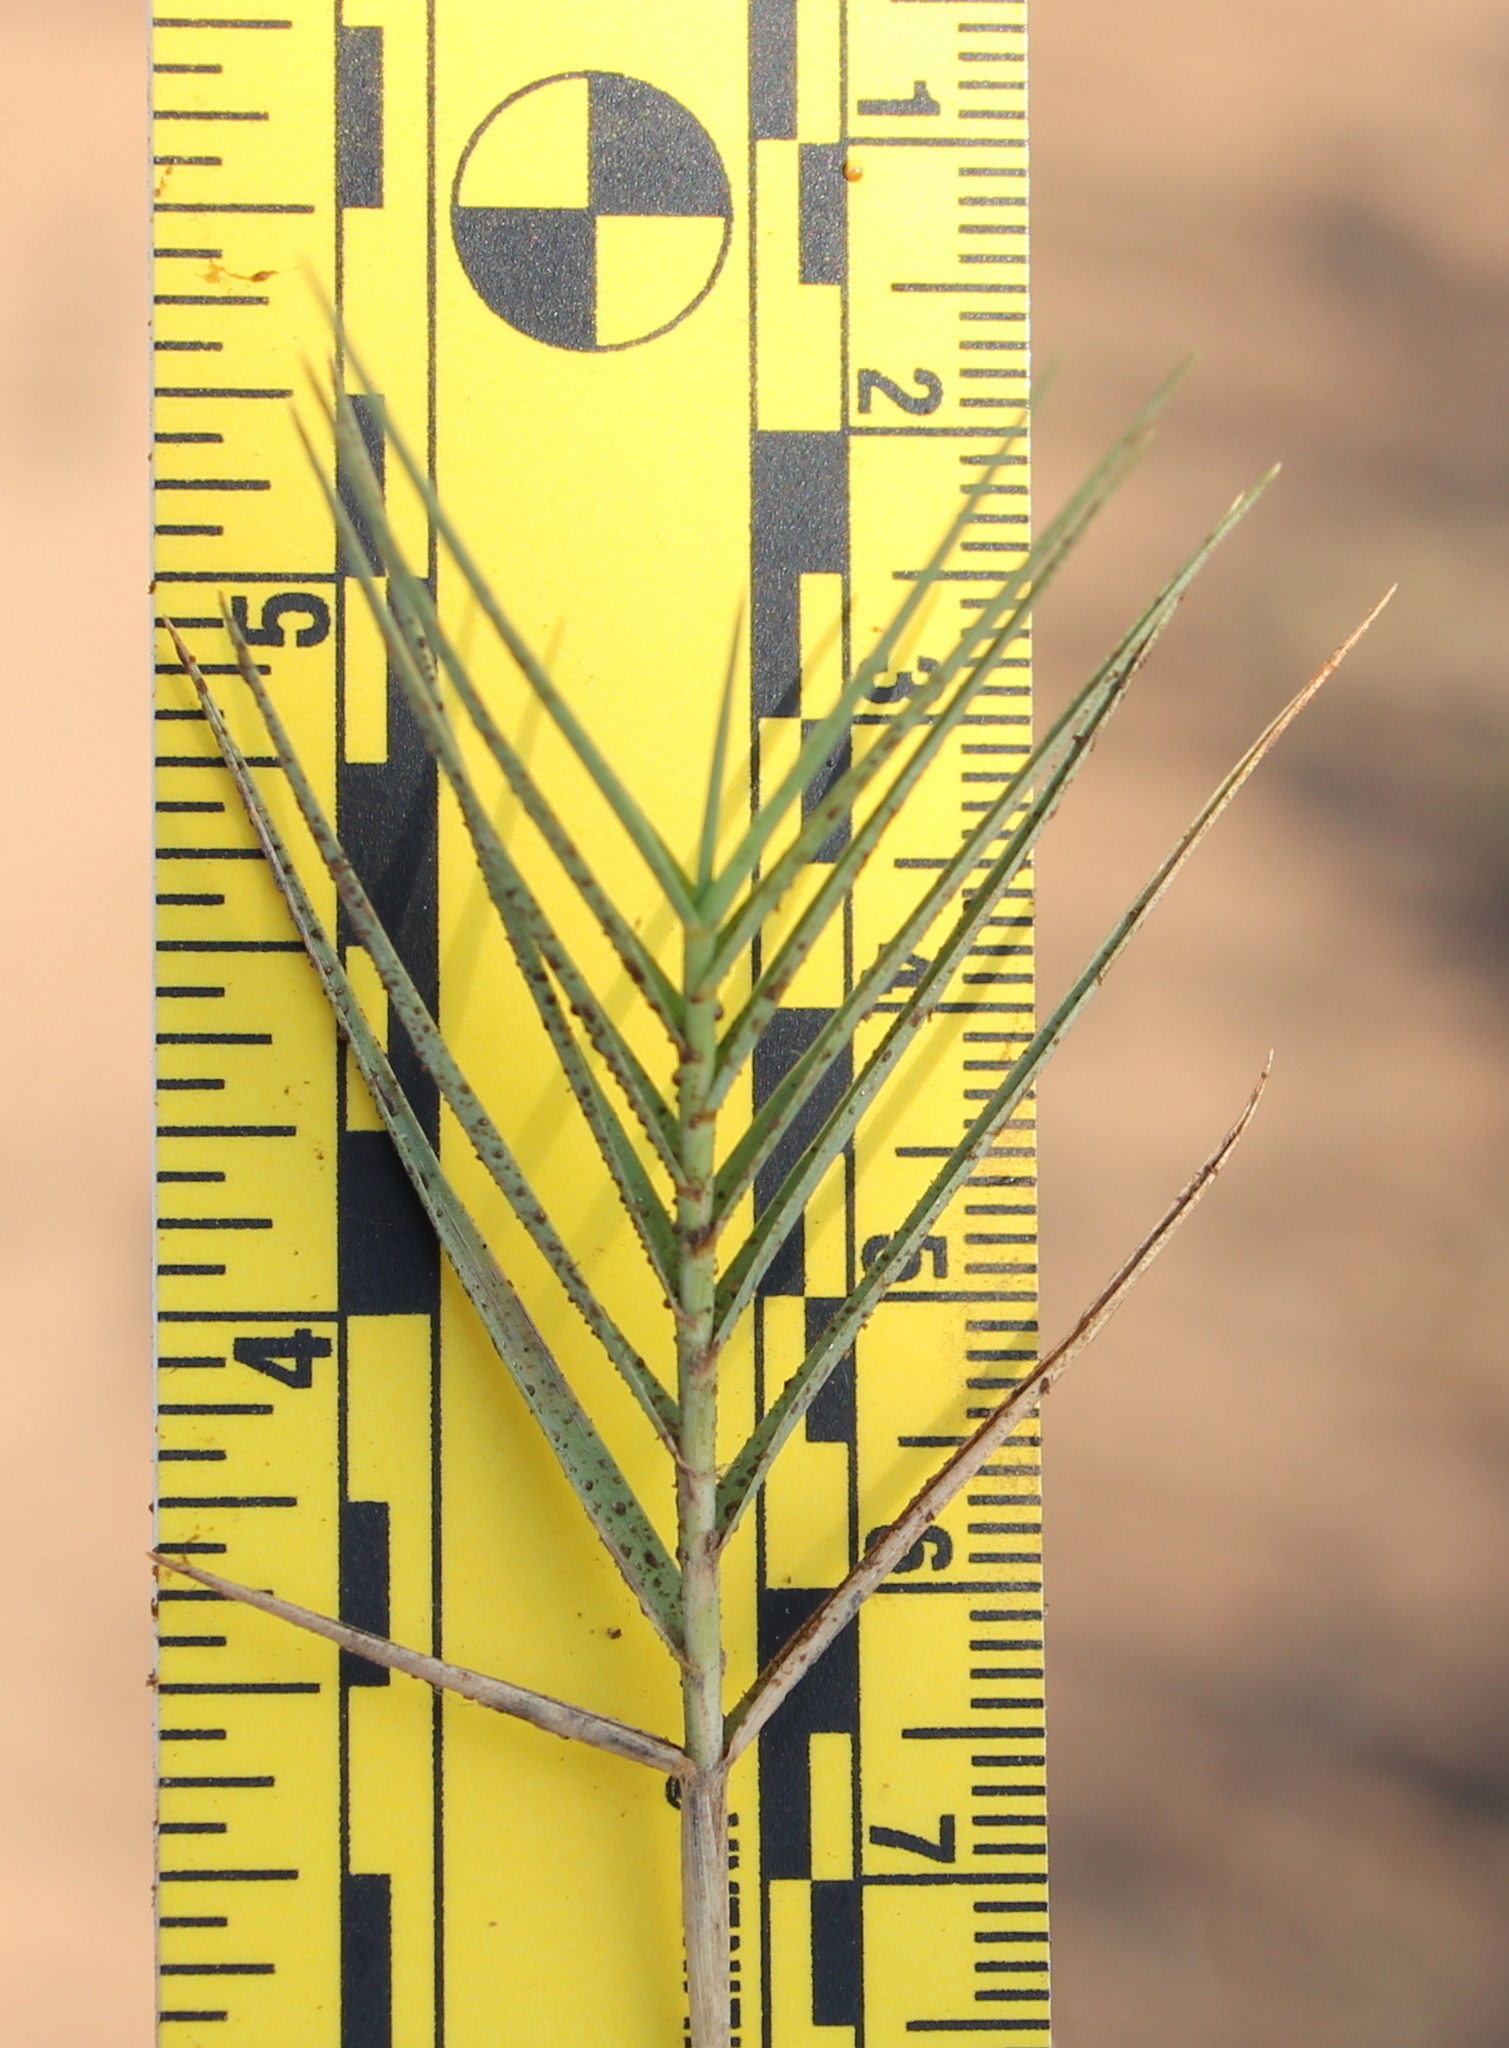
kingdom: Plantae
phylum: Tracheophyta
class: Liliopsida
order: Poales
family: Poaceae
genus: Distichlis
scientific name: Distichlis spicata
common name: Saltgrass
